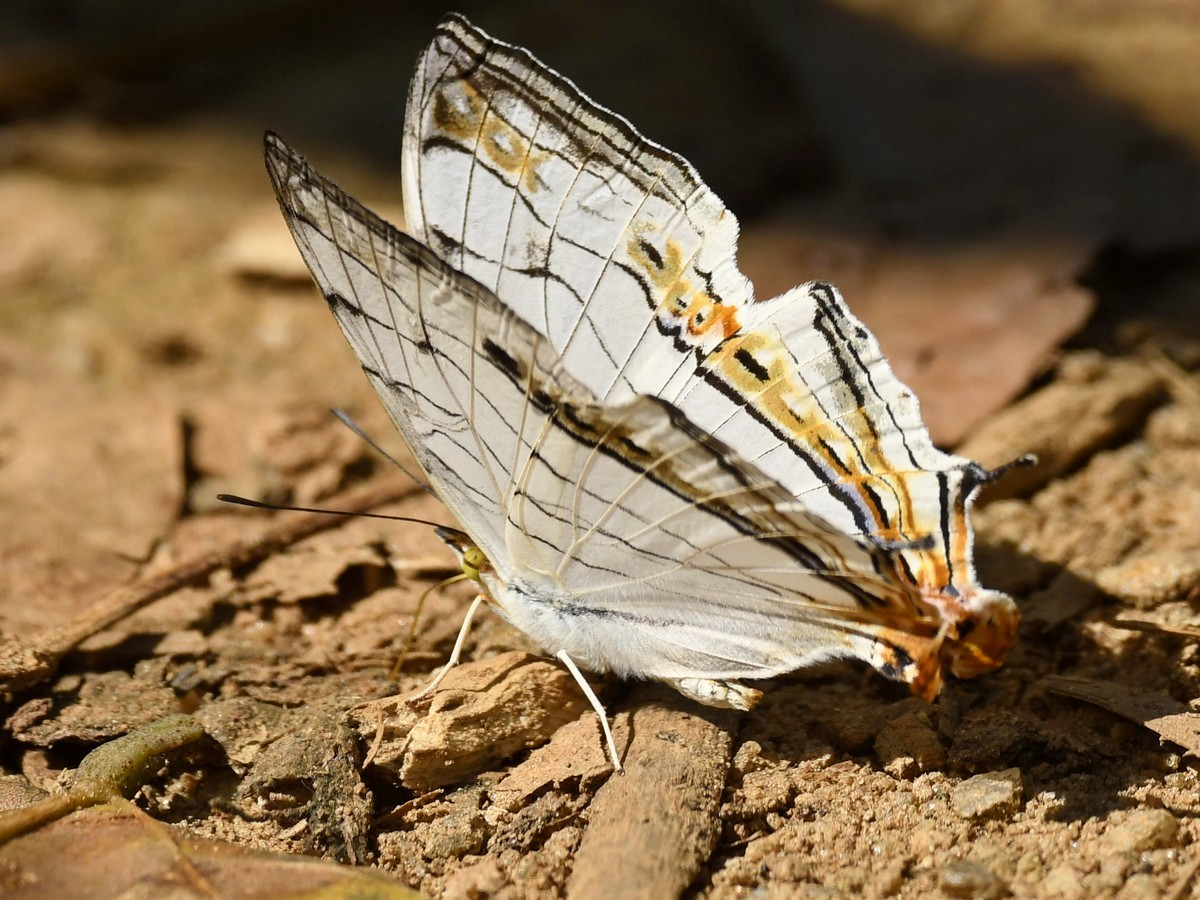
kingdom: Animalia
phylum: Arthropoda
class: Insecta
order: Lepidoptera
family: Nymphalidae
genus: Cyrestis
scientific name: Cyrestis thyodamas
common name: Common mapwing
